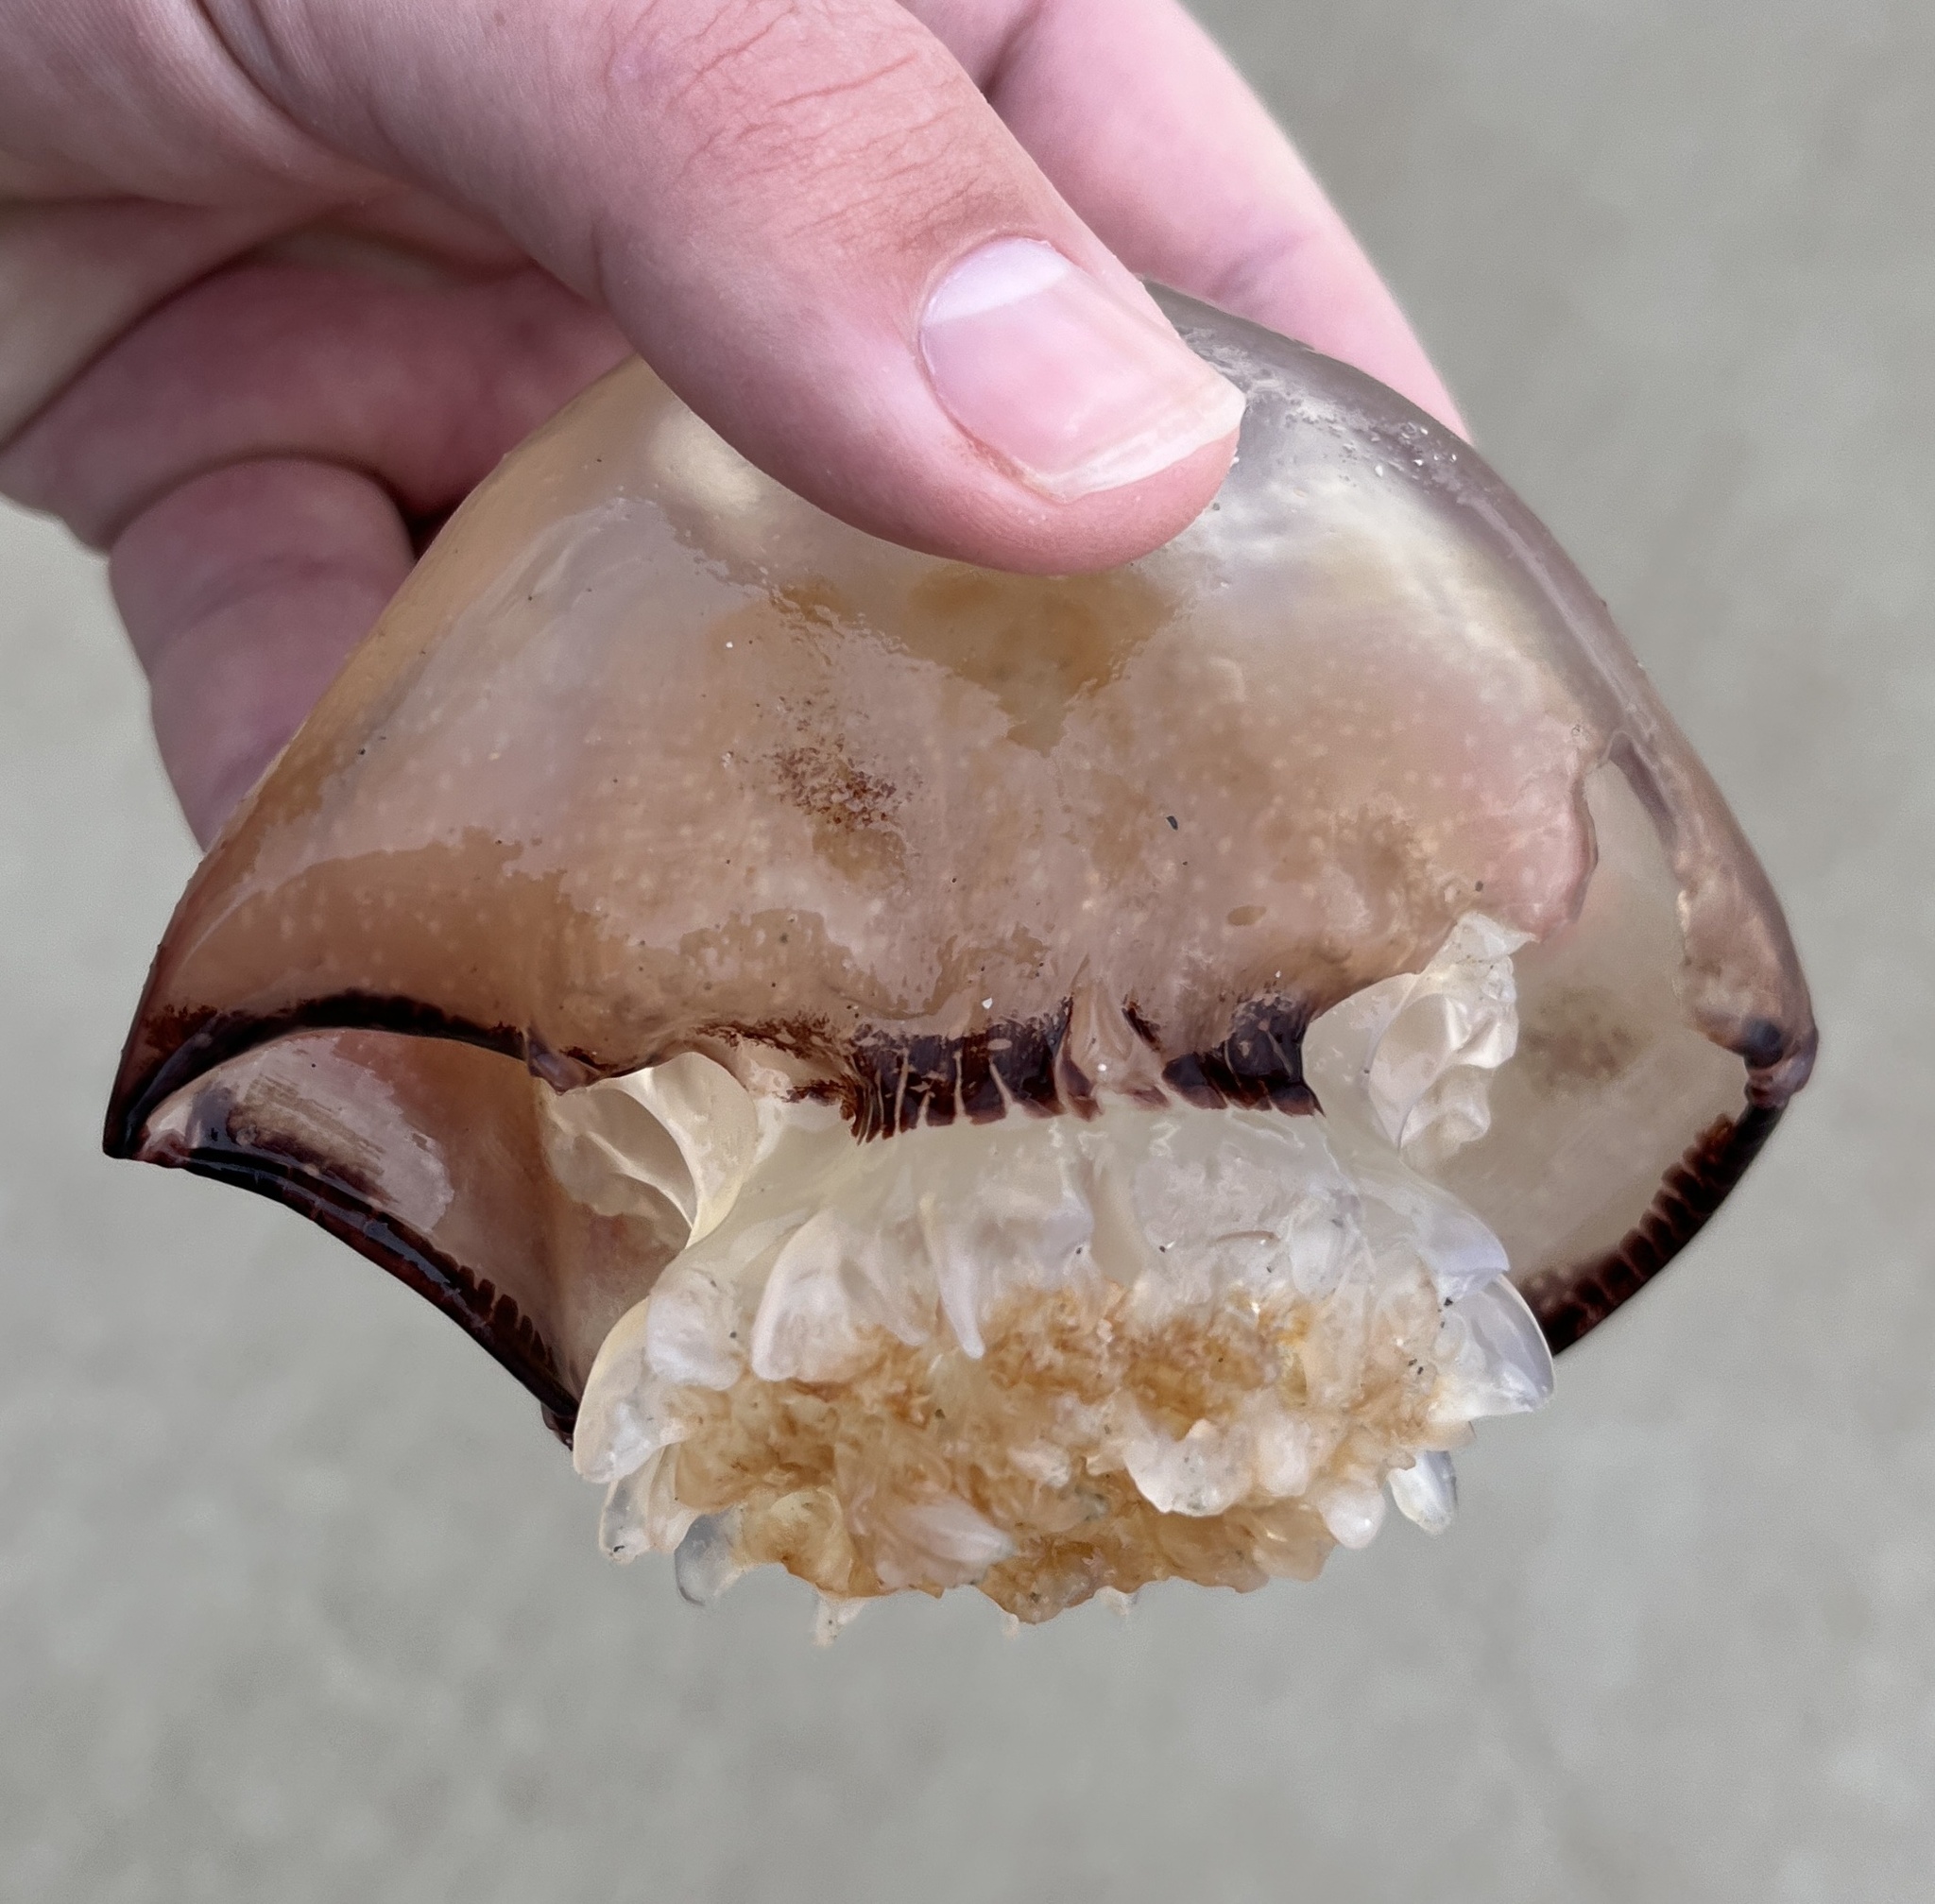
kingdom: Animalia
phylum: Cnidaria
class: Scyphozoa
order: Rhizostomeae
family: Stomolophidae
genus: Stomolophus
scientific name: Stomolophus meleagris
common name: Cabbagehead
